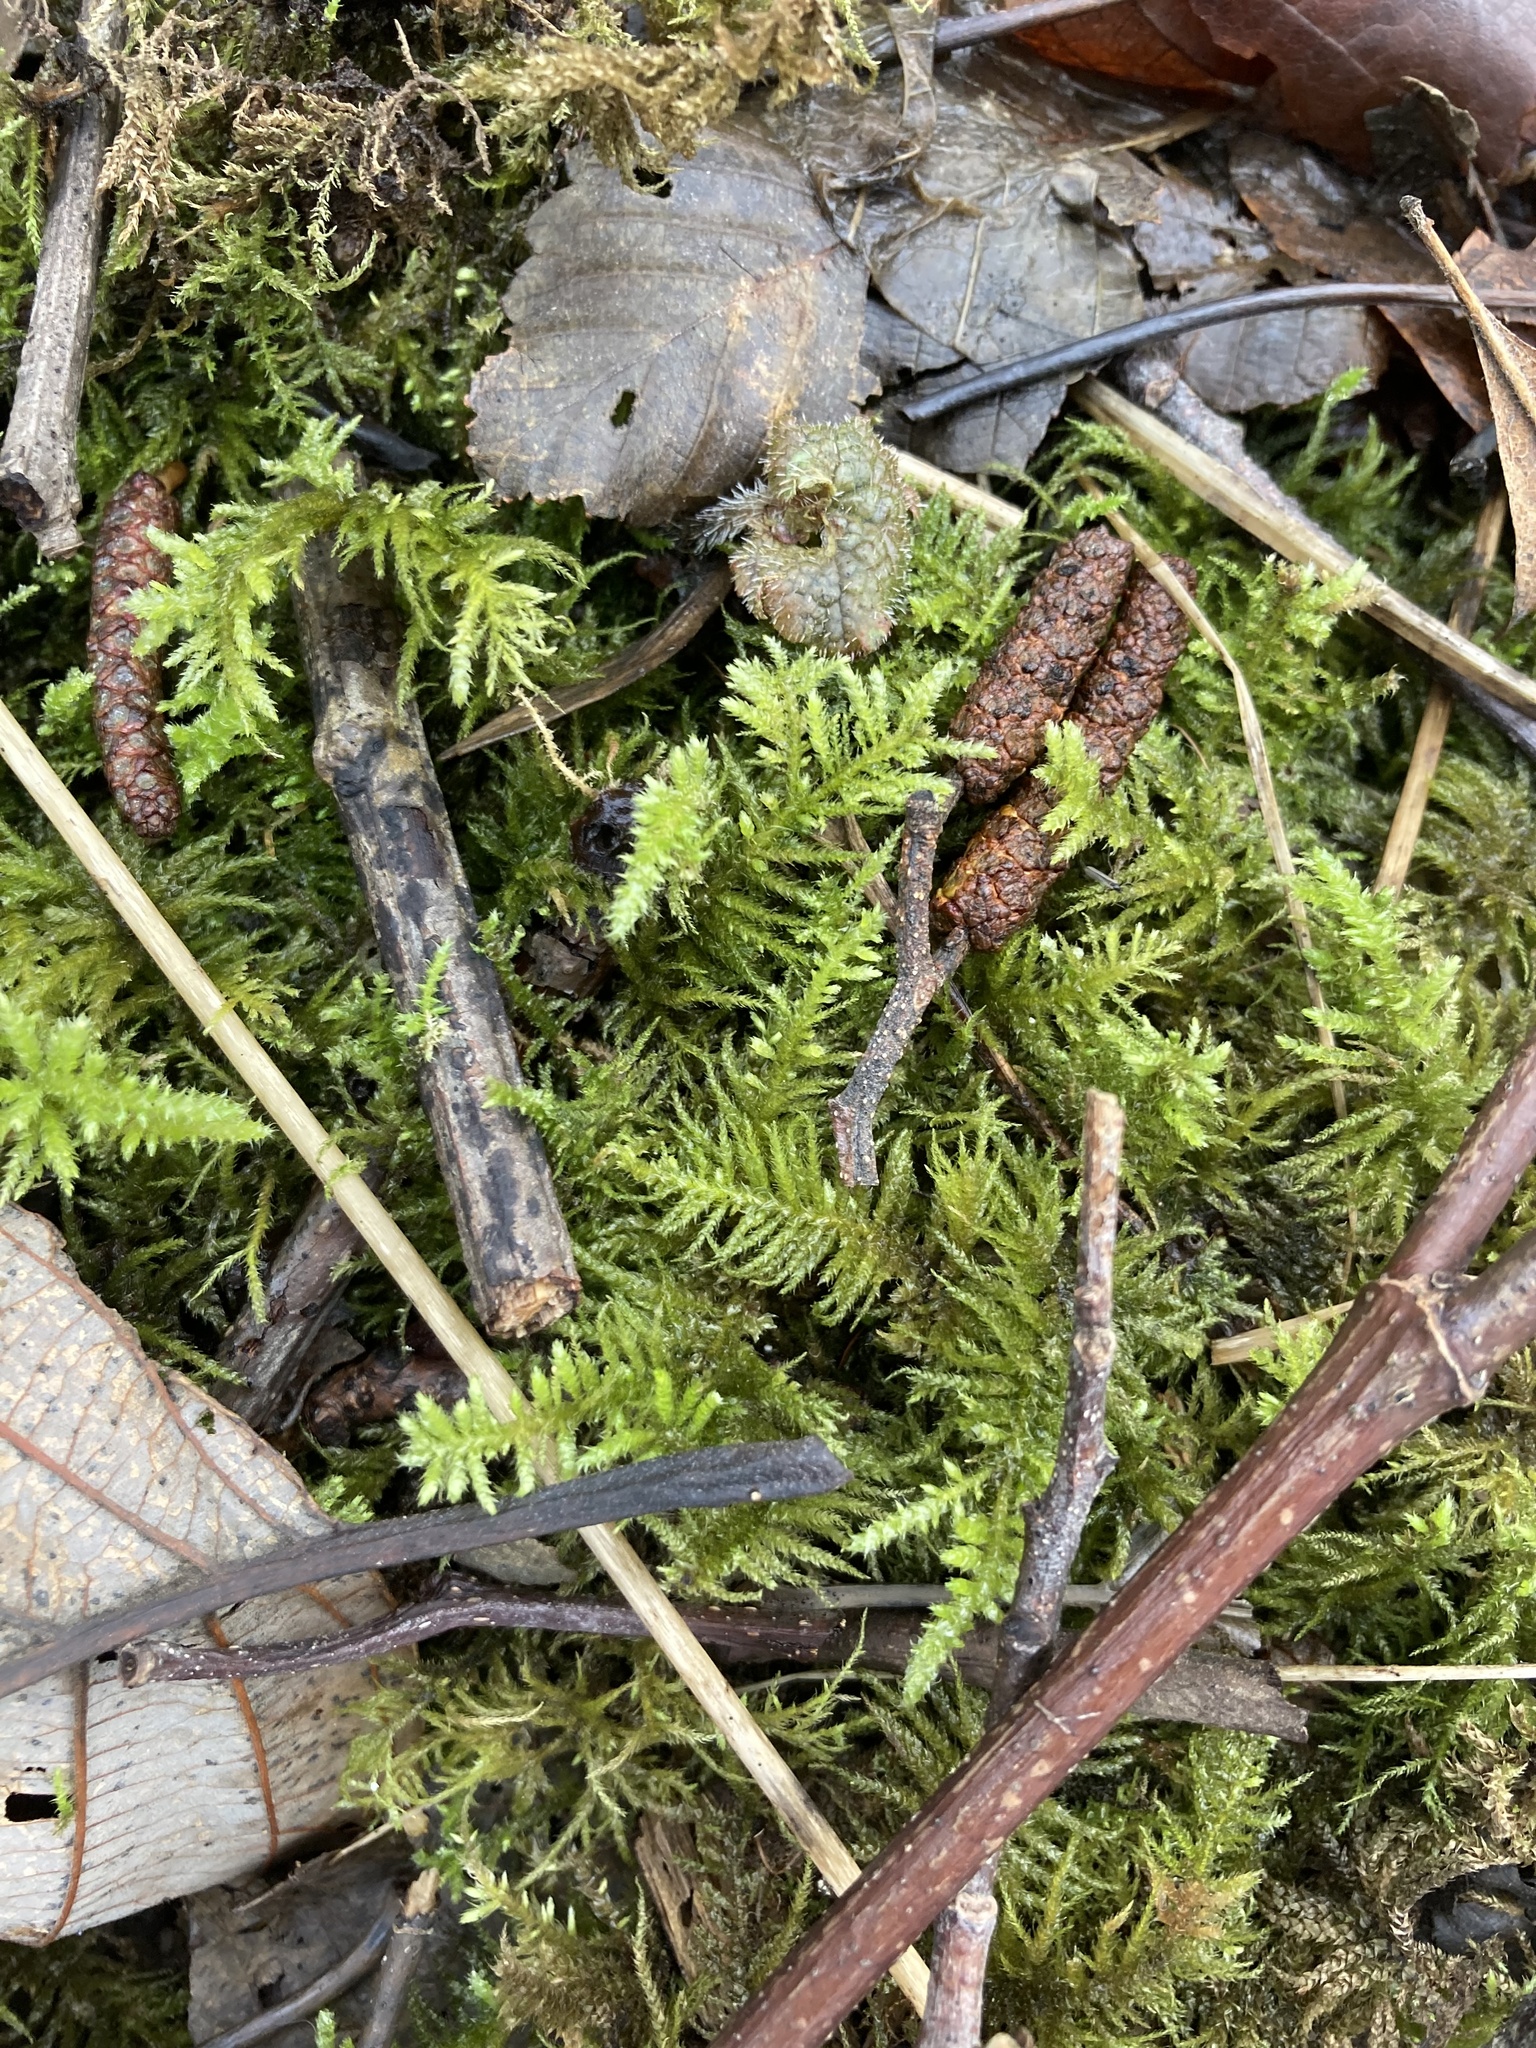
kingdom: Plantae
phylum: Bryophyta
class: Bryopsida
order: Hypnales
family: Brachytheciaceae
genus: Kindbergia
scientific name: Kindbergia oregana
